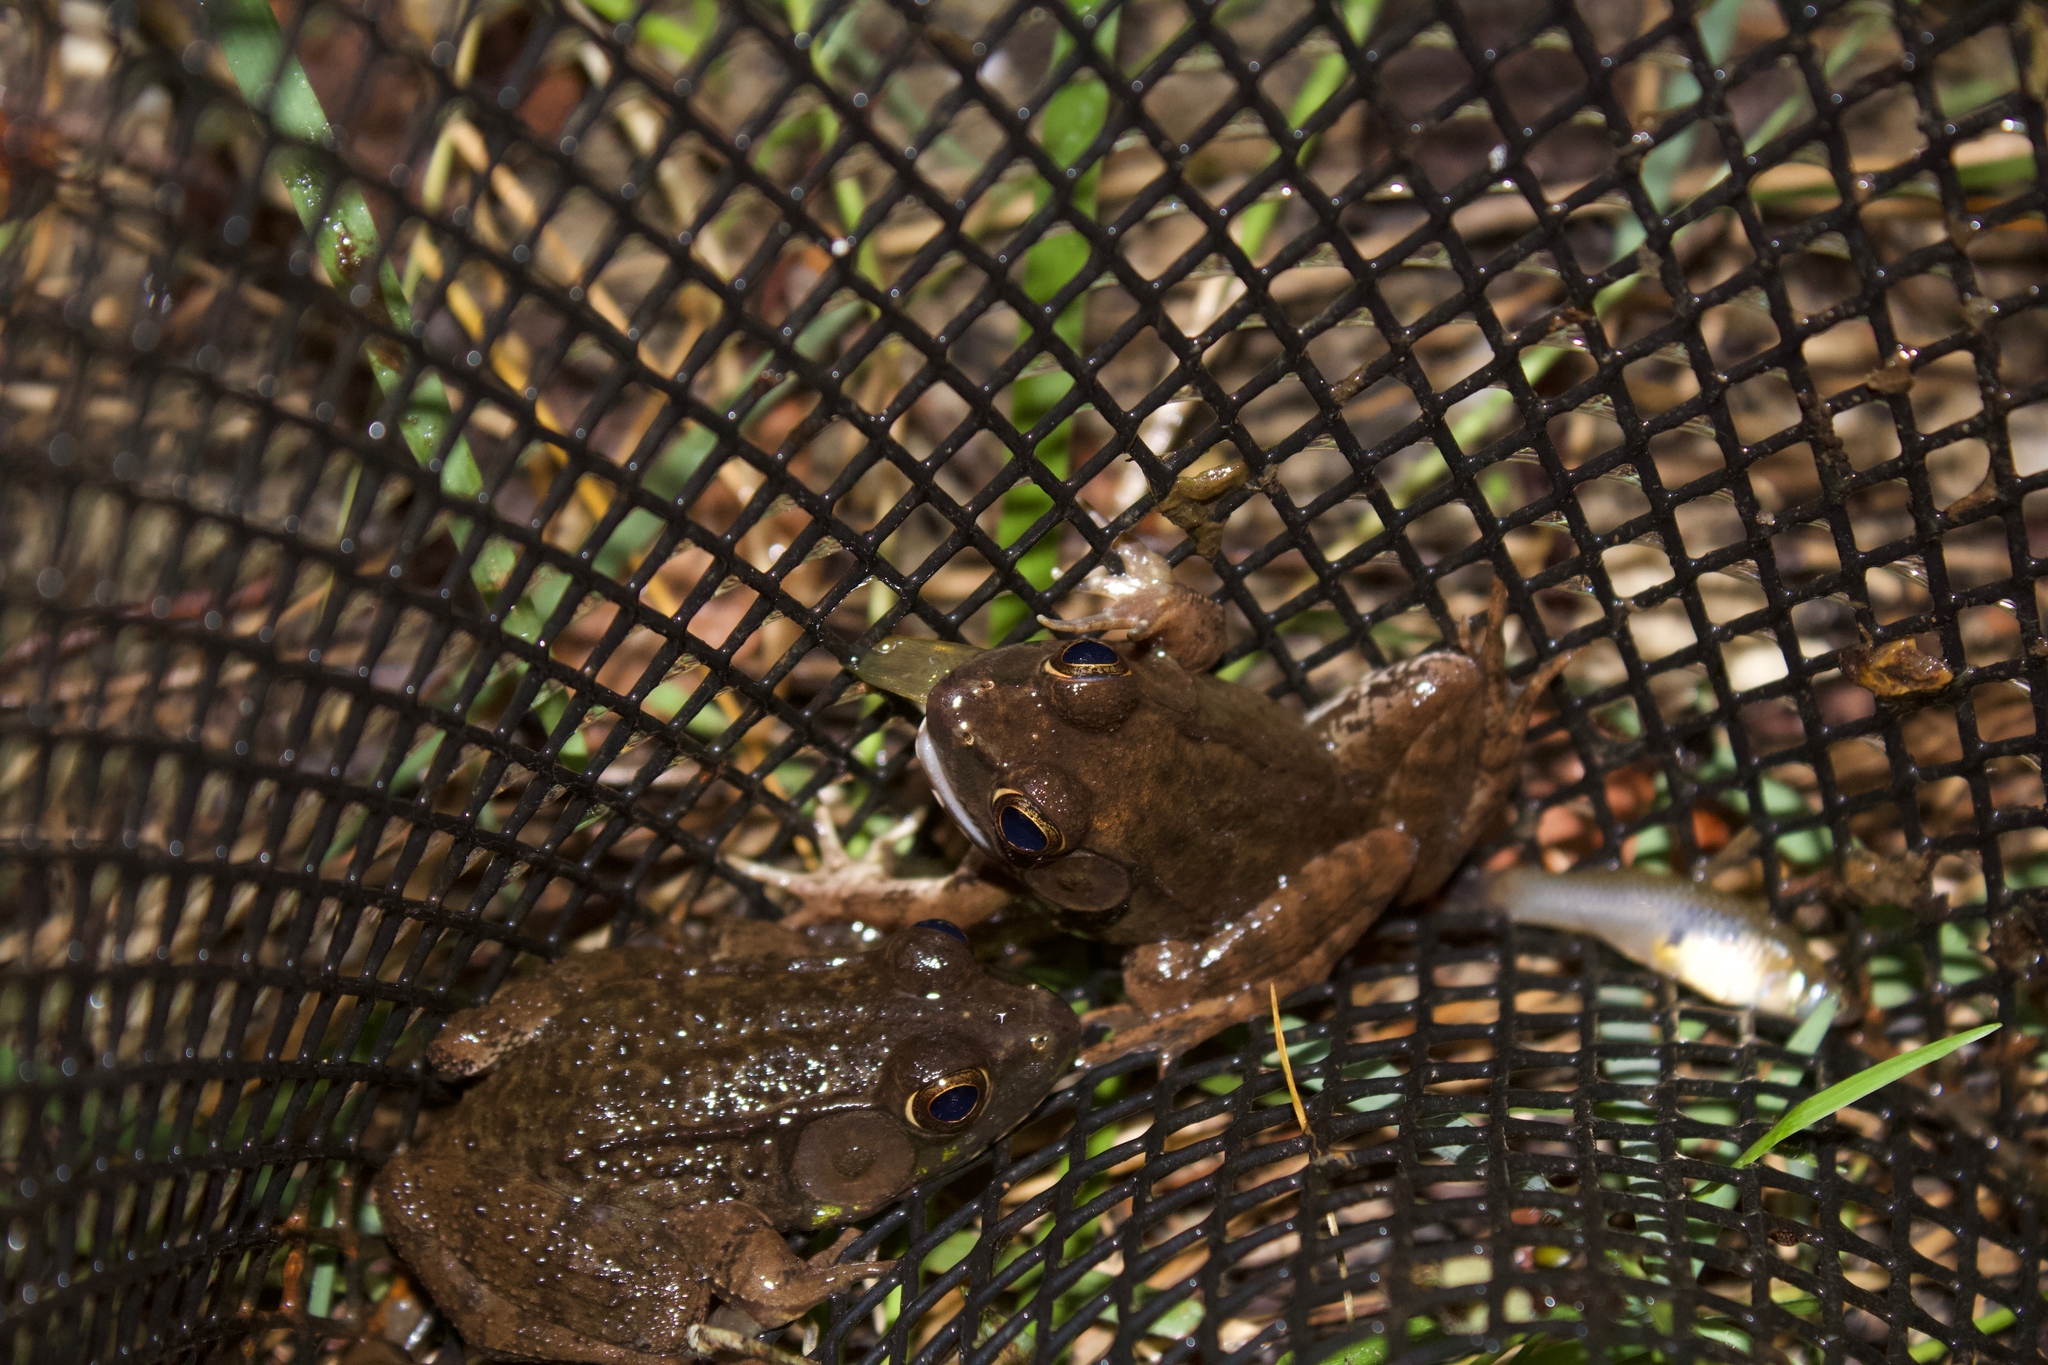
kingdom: Animalia
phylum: Chordata
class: Amphibia
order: Anura
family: Ranidae
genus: Lithobates
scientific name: Lithobates clamitans
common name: Green frog
